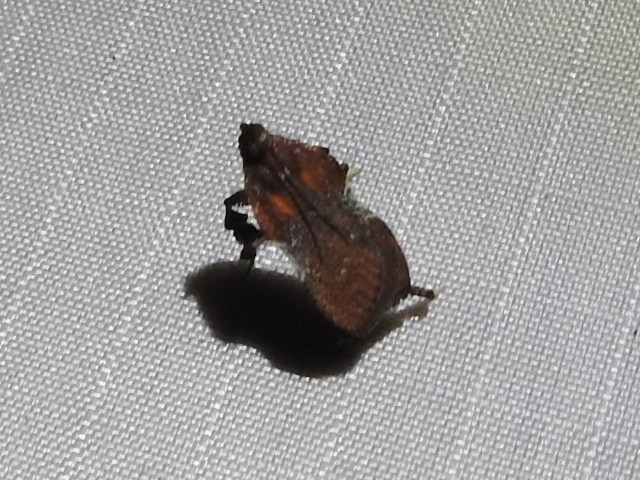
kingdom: Animalia
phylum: Arthropoda
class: Insecta
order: Lepidoptera
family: Pyralidae
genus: Galasa
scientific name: Galasa nigrinodis
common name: Boxwood leaftier moth
